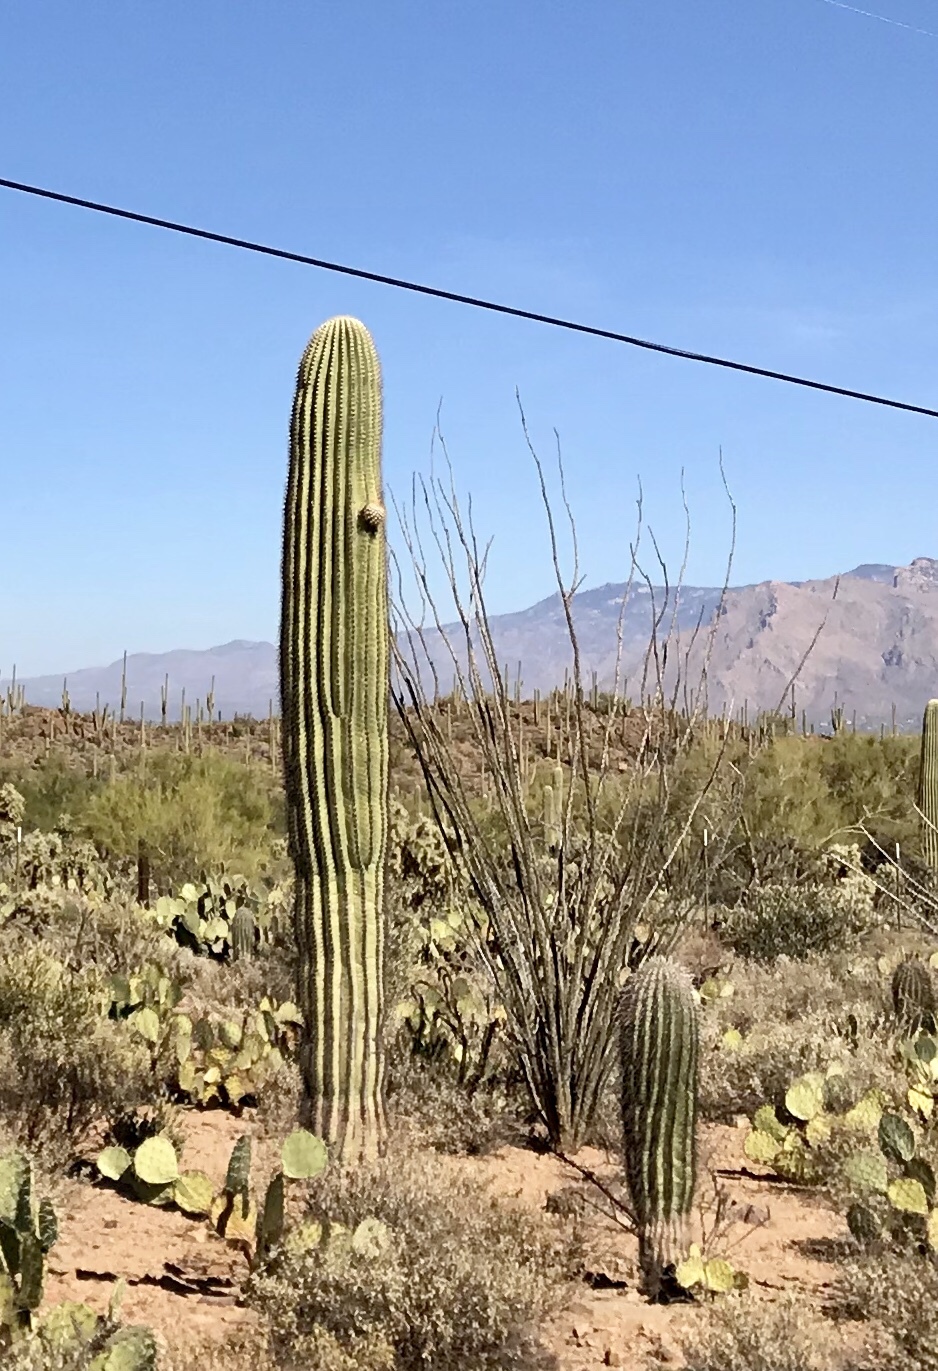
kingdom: Plantae
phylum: Tracheophyta
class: Magnoliopsida
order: Ericales
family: Fouquieriaceae
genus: Fouquieria
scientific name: Fouquieria splendens
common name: Vine-cactus
